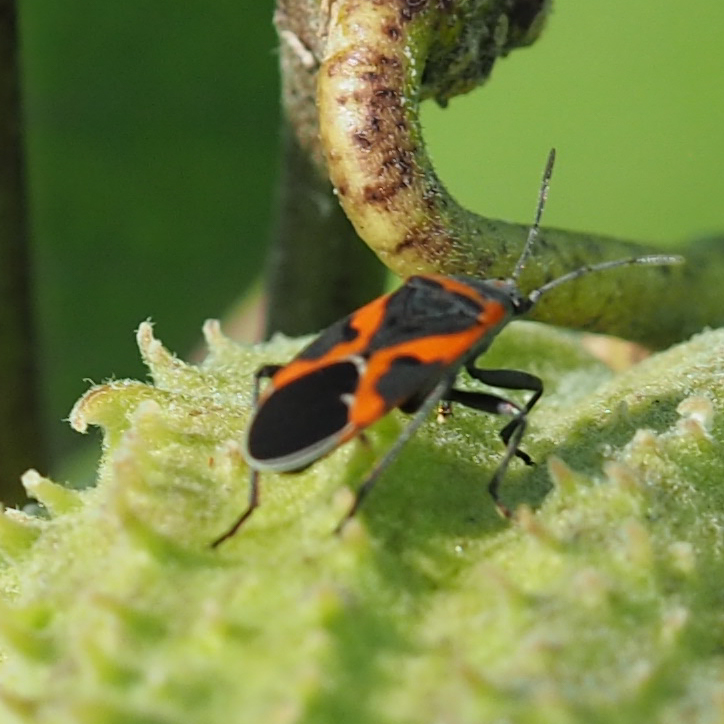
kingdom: Animalia
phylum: Arthropoda
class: Insecta
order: Hemiptera
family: Lygaeidae
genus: Lygaeus
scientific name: Lygaeus kalmii
